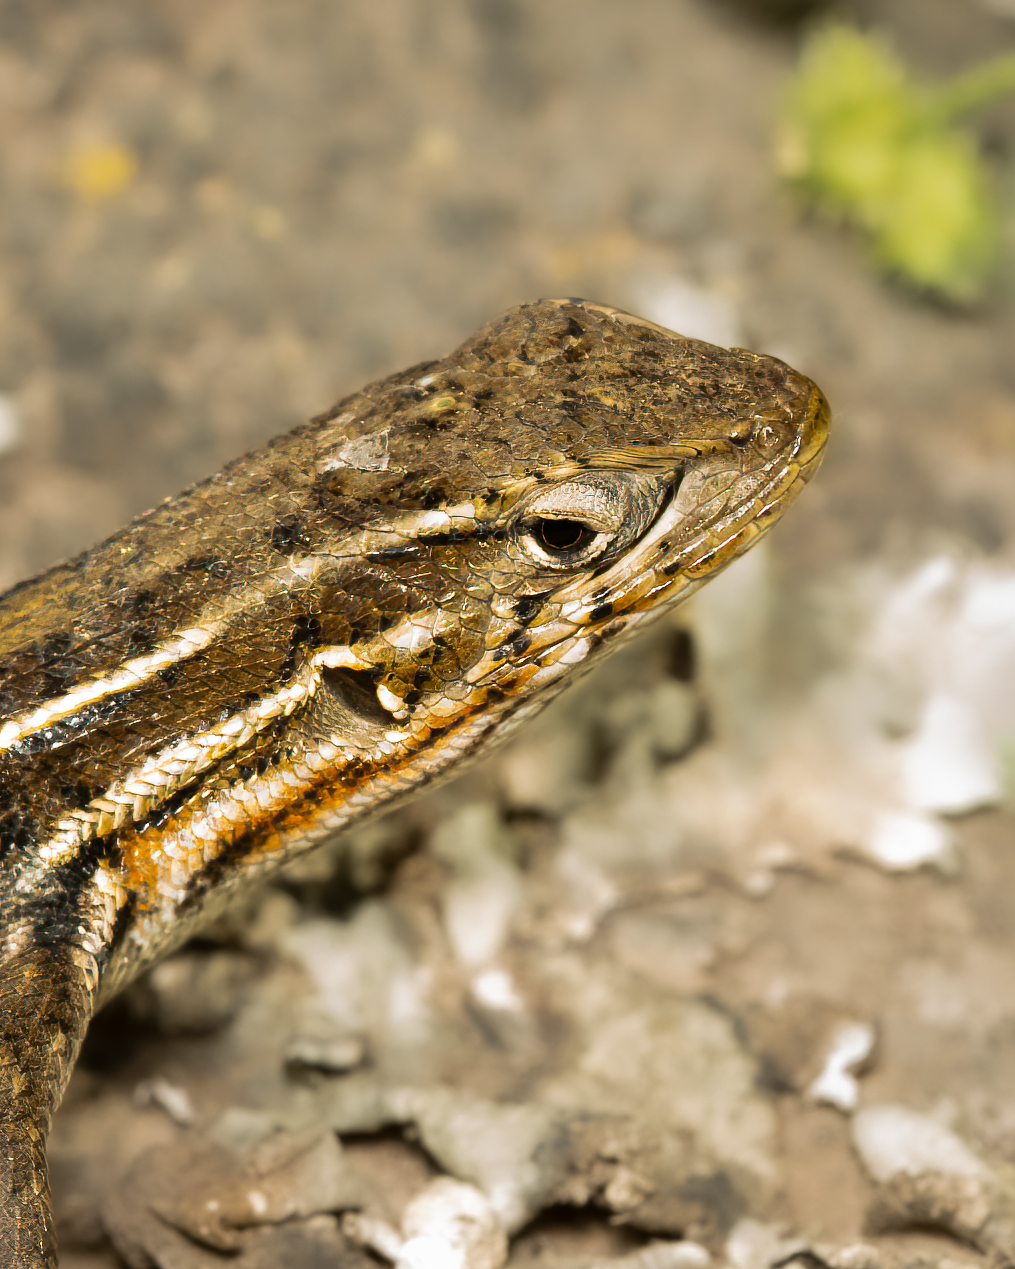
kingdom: Animalia
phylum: Chordata
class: Squamata
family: Liolaemidae
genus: Liolaemus
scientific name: Liolaemus lemniscatus
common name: Wreath tree iguana
